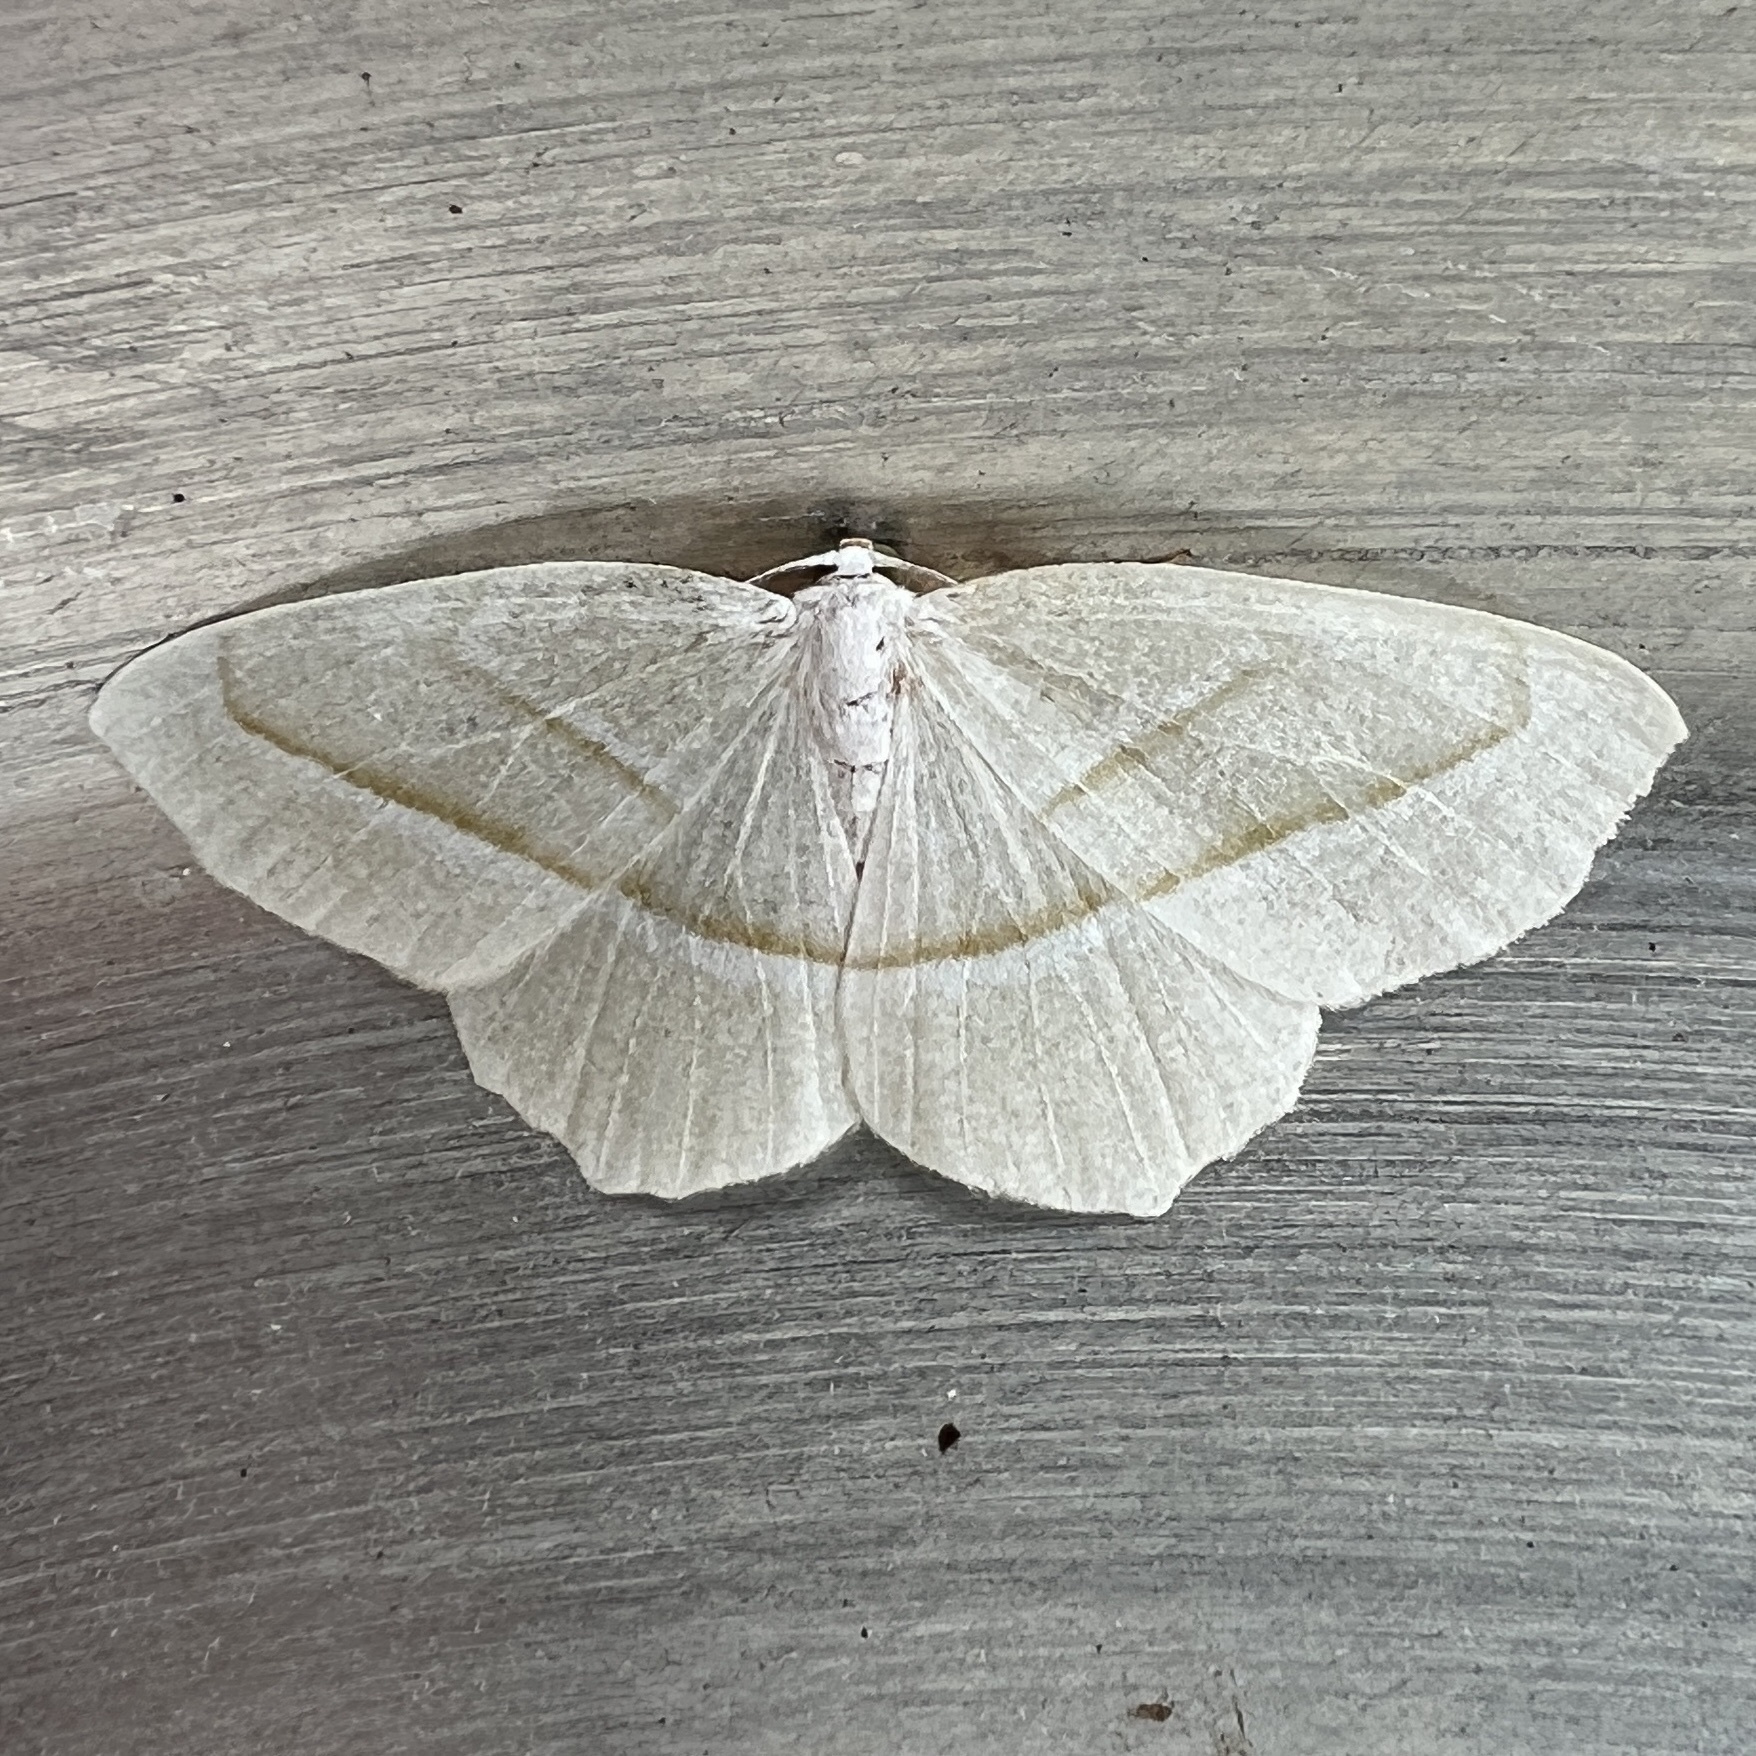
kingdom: Animalia
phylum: Arthropoda
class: Insecta
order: Lepidoptera
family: Geometridae
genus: Campaea
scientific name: Campaea perlata
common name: Fringed looper
